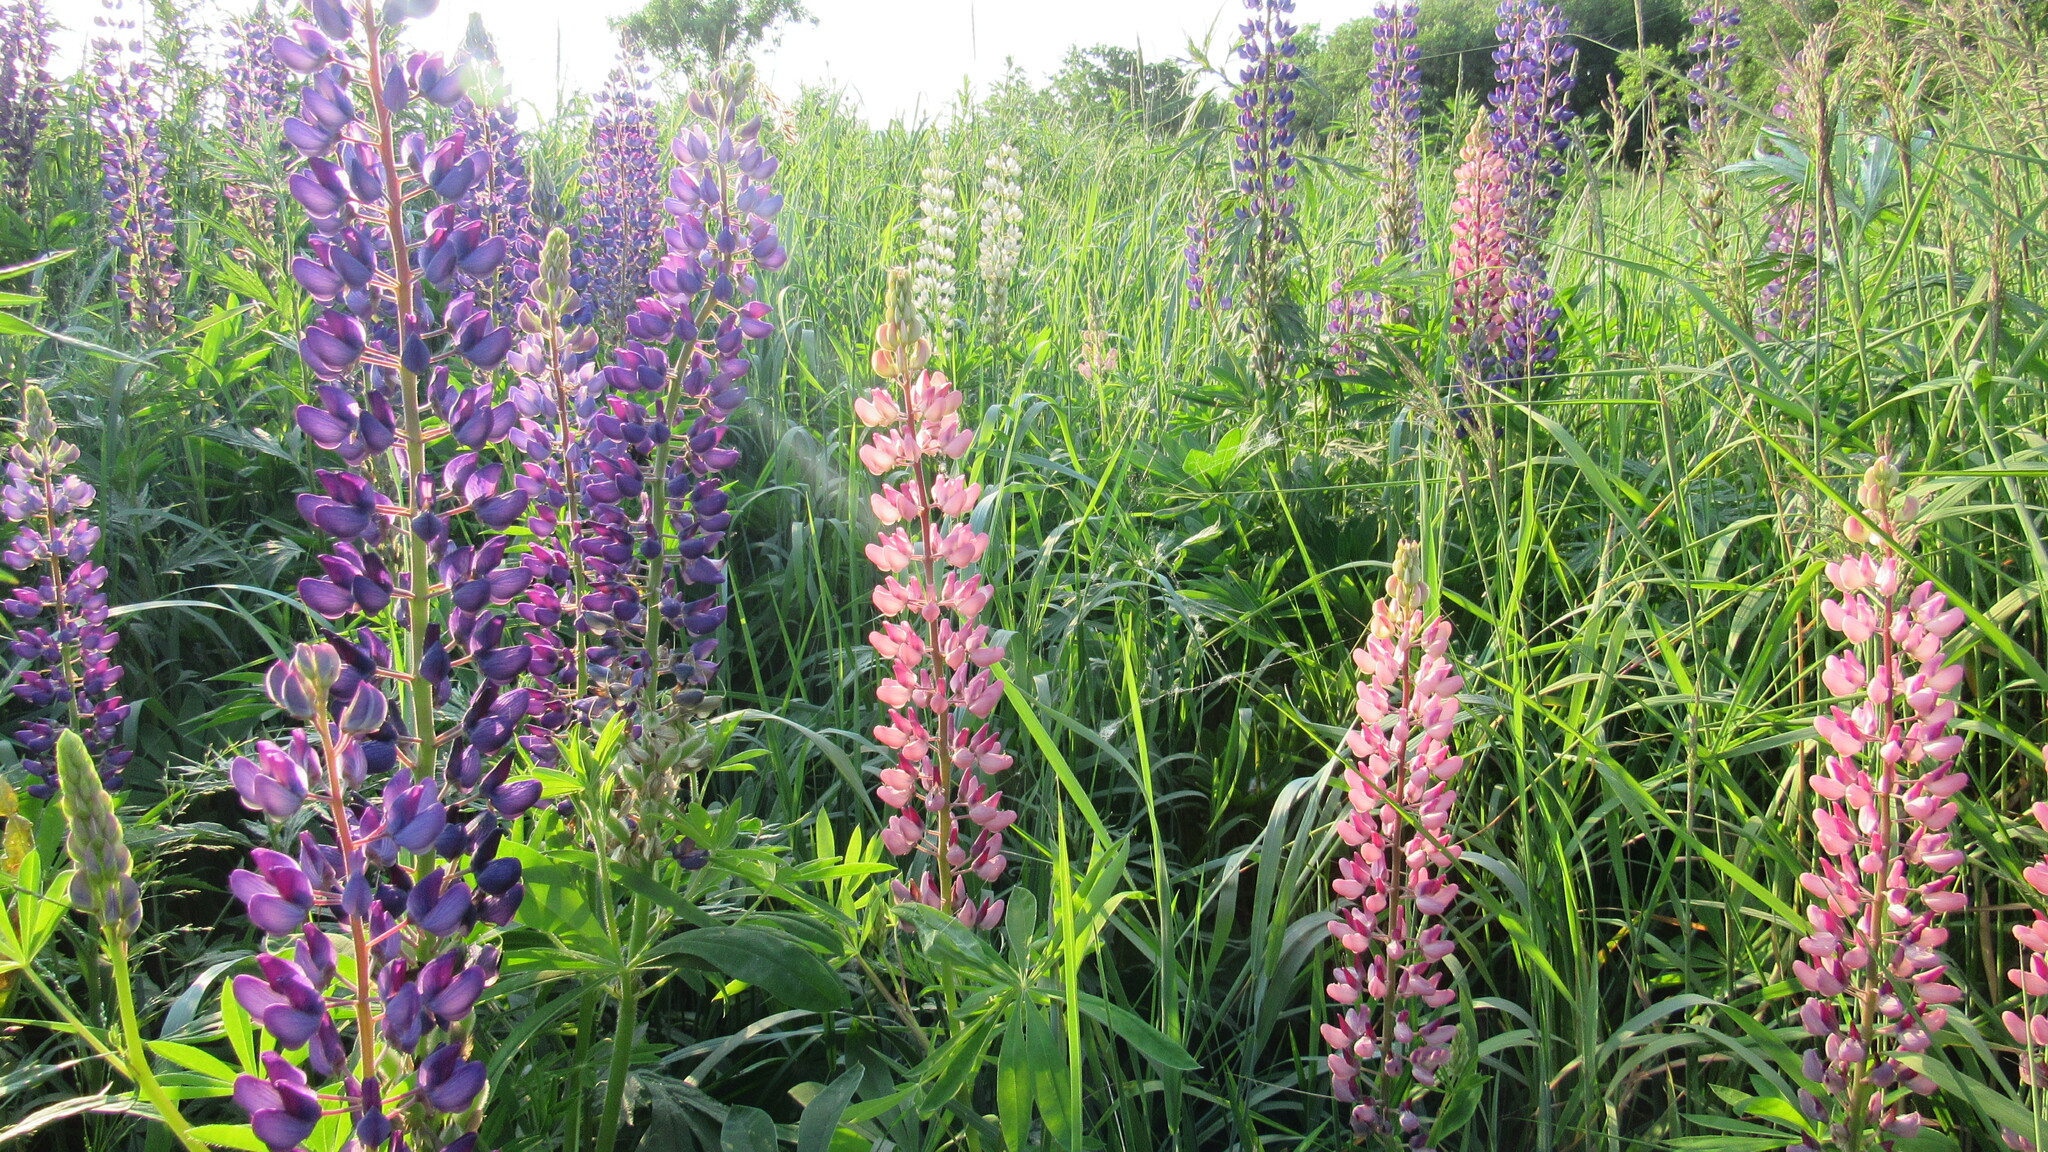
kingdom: Plantae
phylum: Tracheophyta
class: Magnoliopsida
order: Fabales
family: Fabaceae
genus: Lupinus
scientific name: Lupinus polyphyllus
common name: Garden lupin
